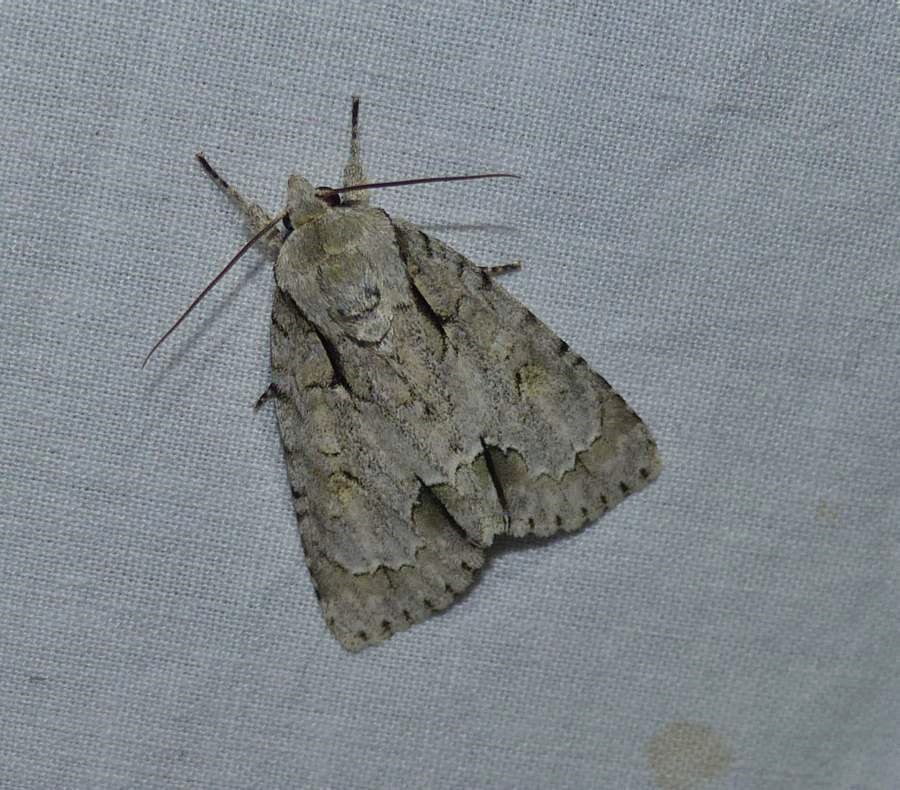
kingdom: Animalia
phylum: Arthropoda
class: Insecta
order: Lepidoptera
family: Noctuidae
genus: Acronicta
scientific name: Acronicta morula
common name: Ochre dagger
